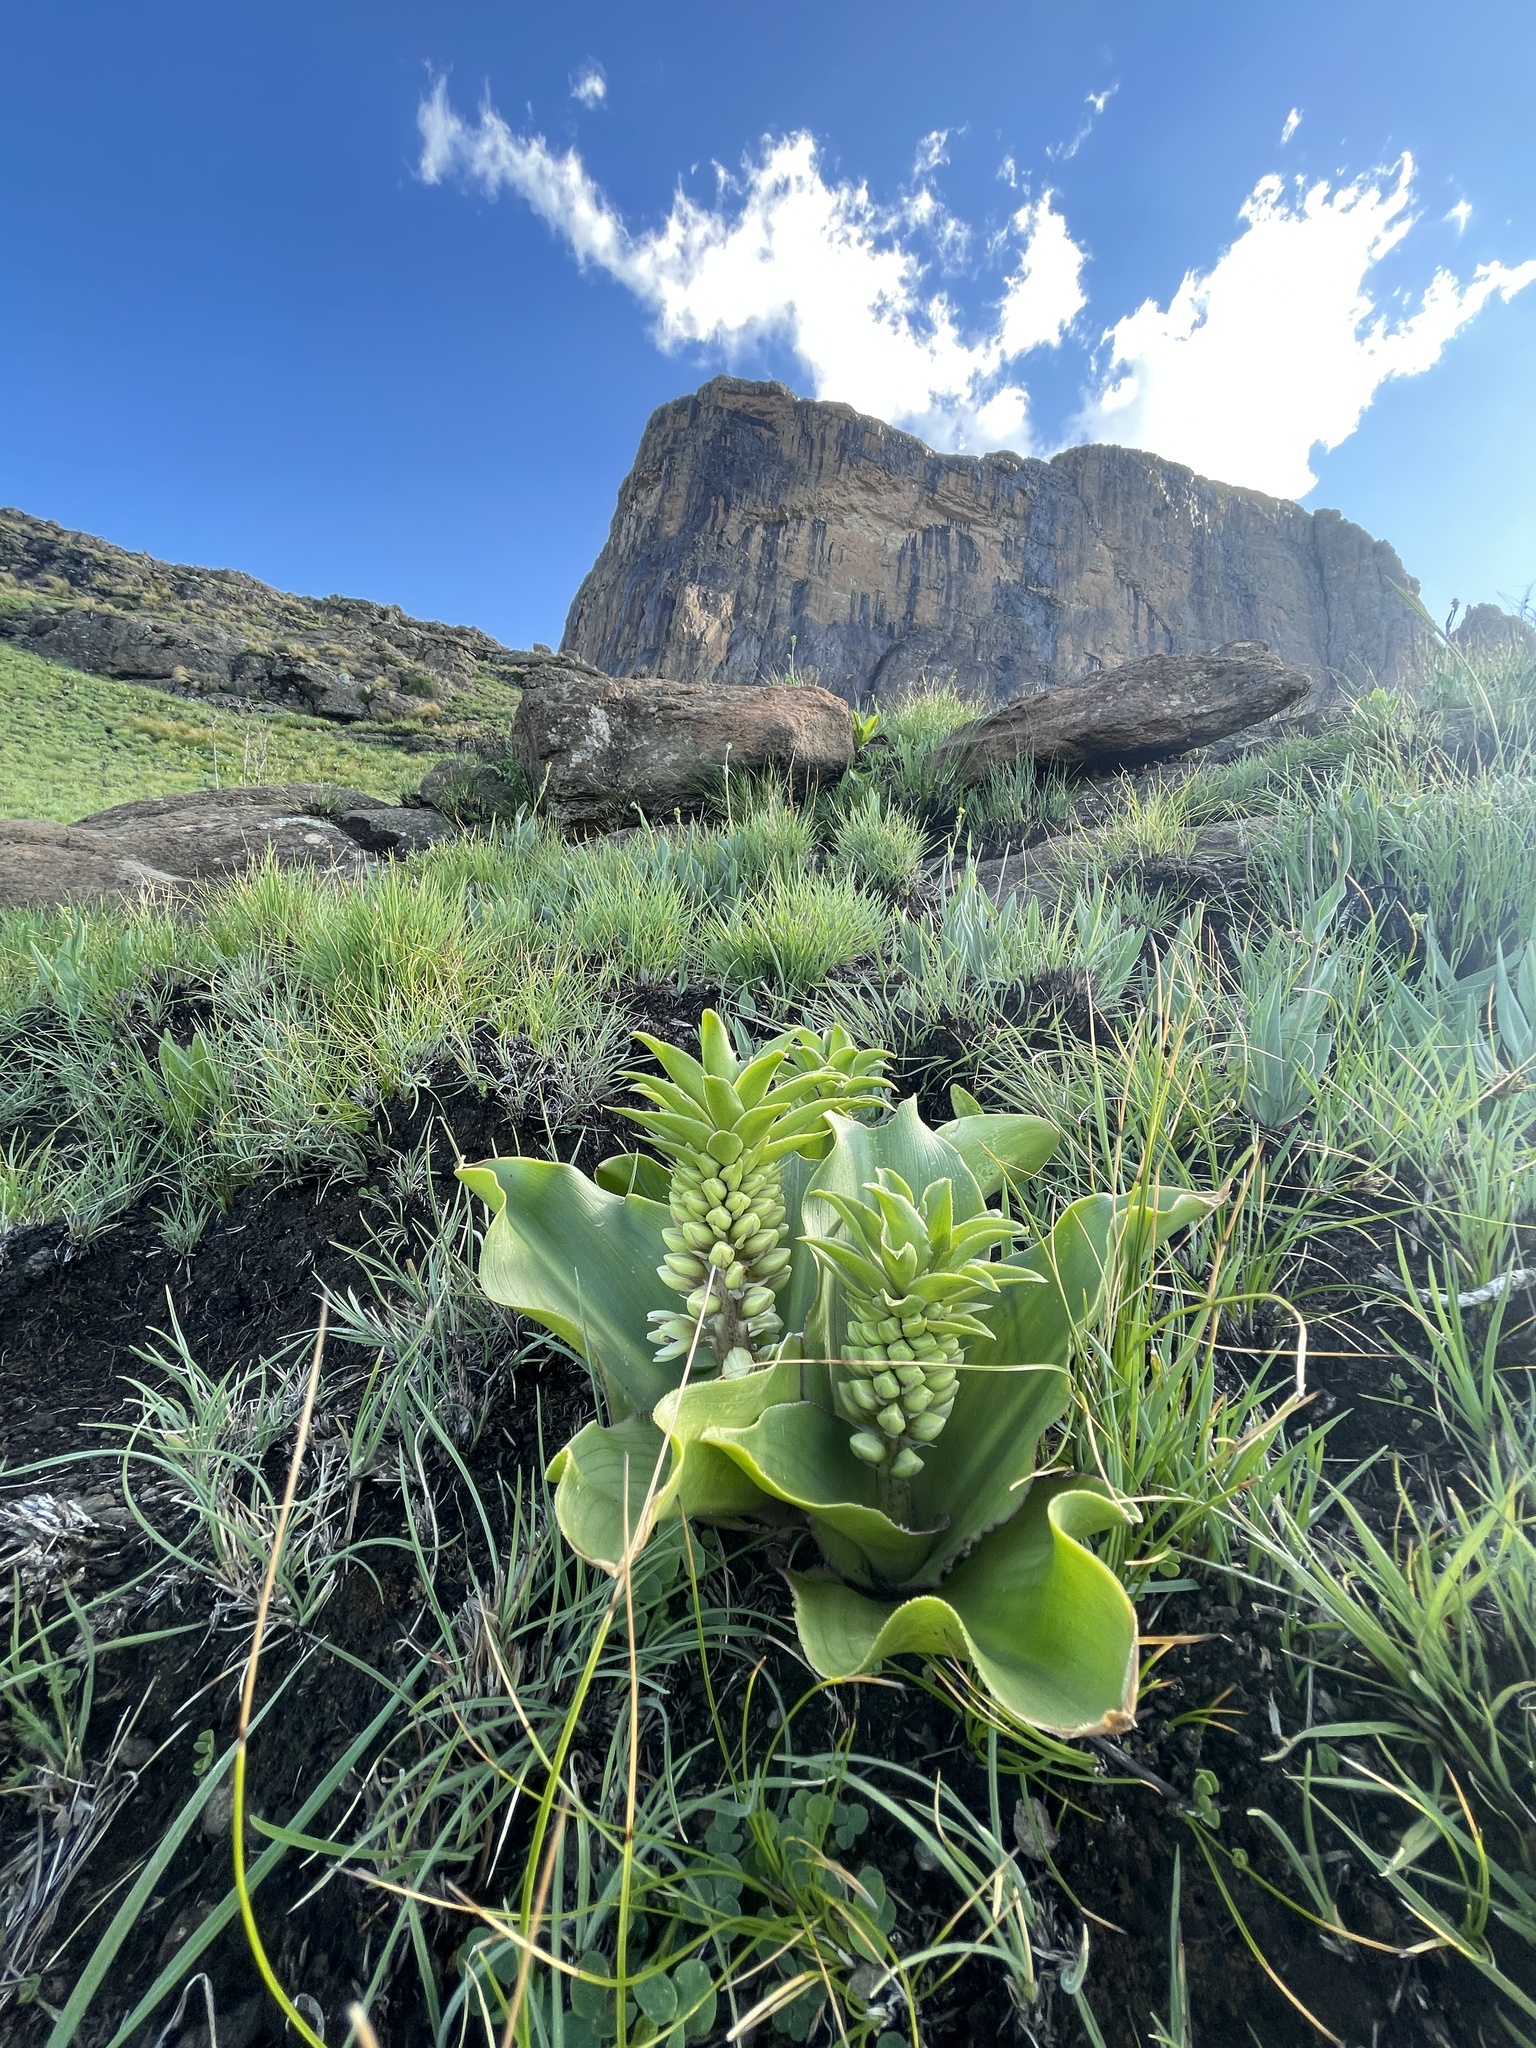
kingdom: Plantae
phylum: Tracheophyta
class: Liliopsida
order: Asparagales
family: Asparagaceae
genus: Eucomis
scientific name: Eucomis autumnalis
